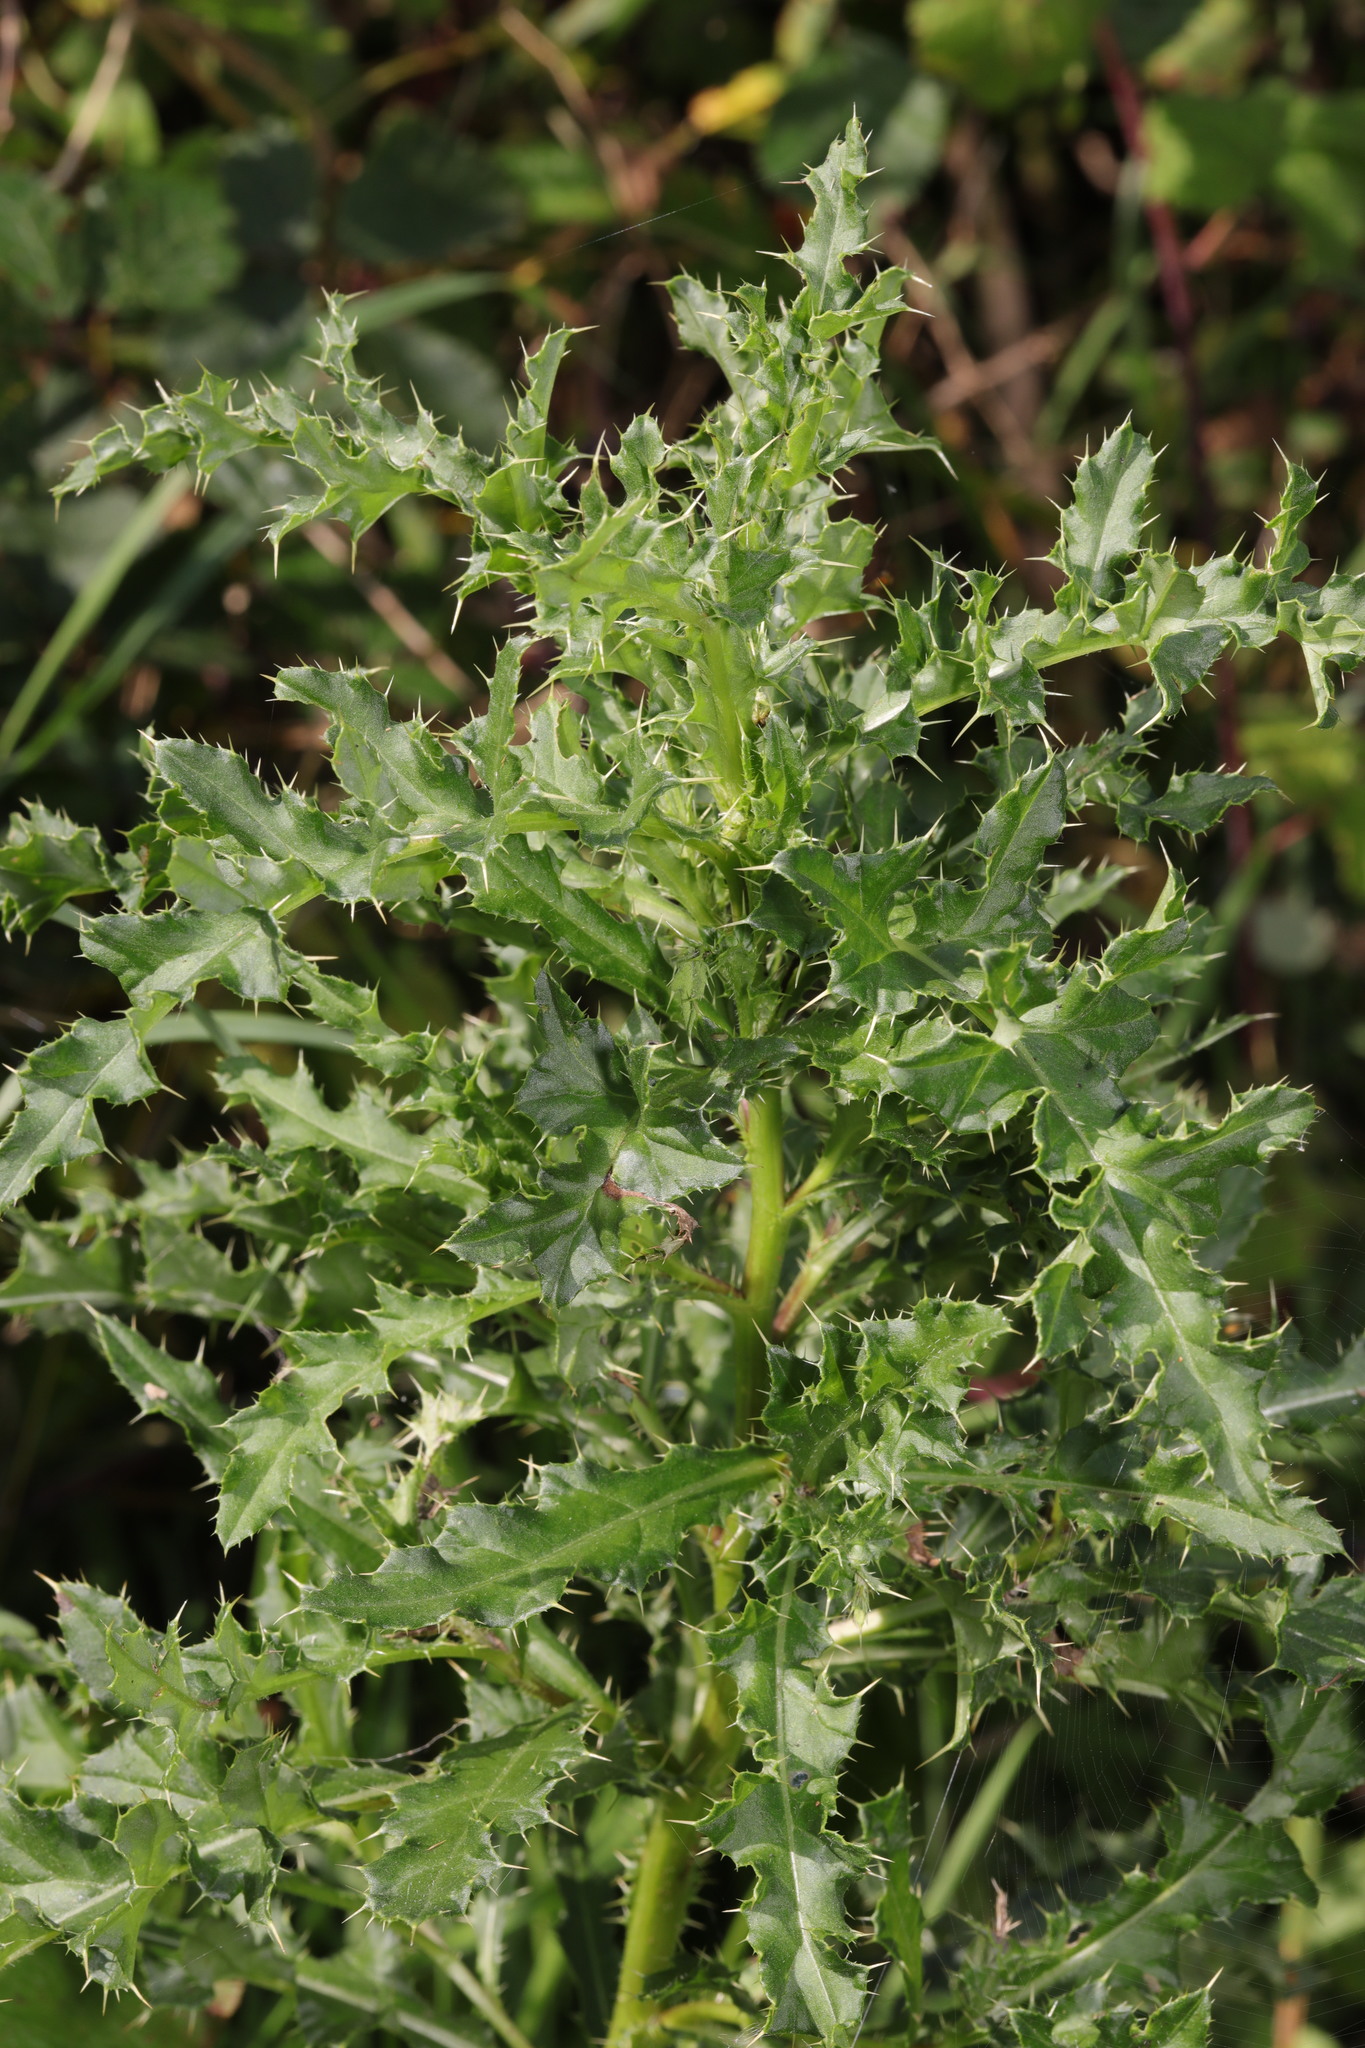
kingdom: Plantae
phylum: Tracheophyta
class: Magnoliopsida
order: Asterales
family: Asteraceae
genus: Cirsium
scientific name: Cirsium arvense
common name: Creeping thistle
